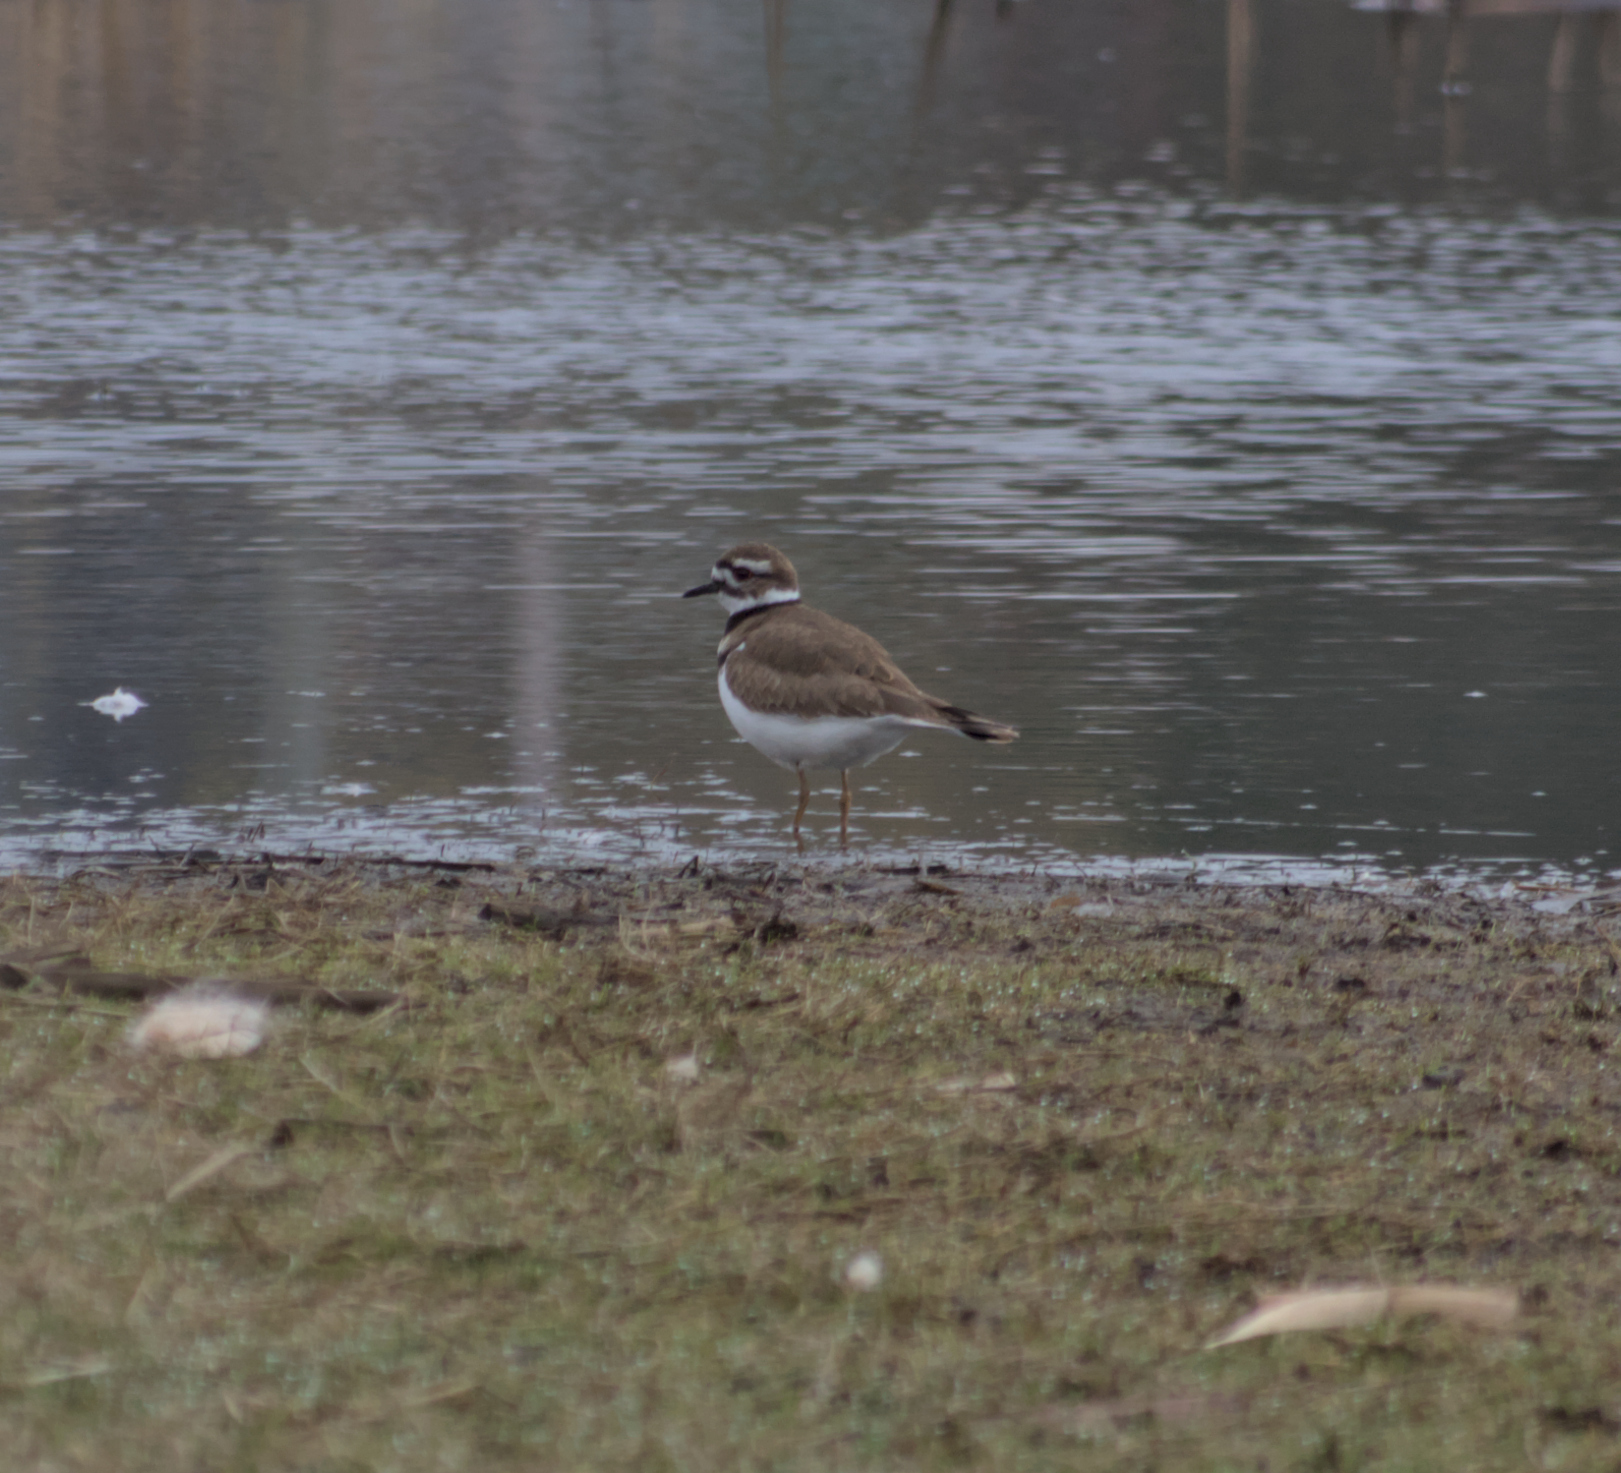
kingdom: Animalia
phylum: Chordata
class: Aves
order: Charadriiformes
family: Charadriidae
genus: Charadrius
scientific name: Charadrius vociferus
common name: Killdeer
